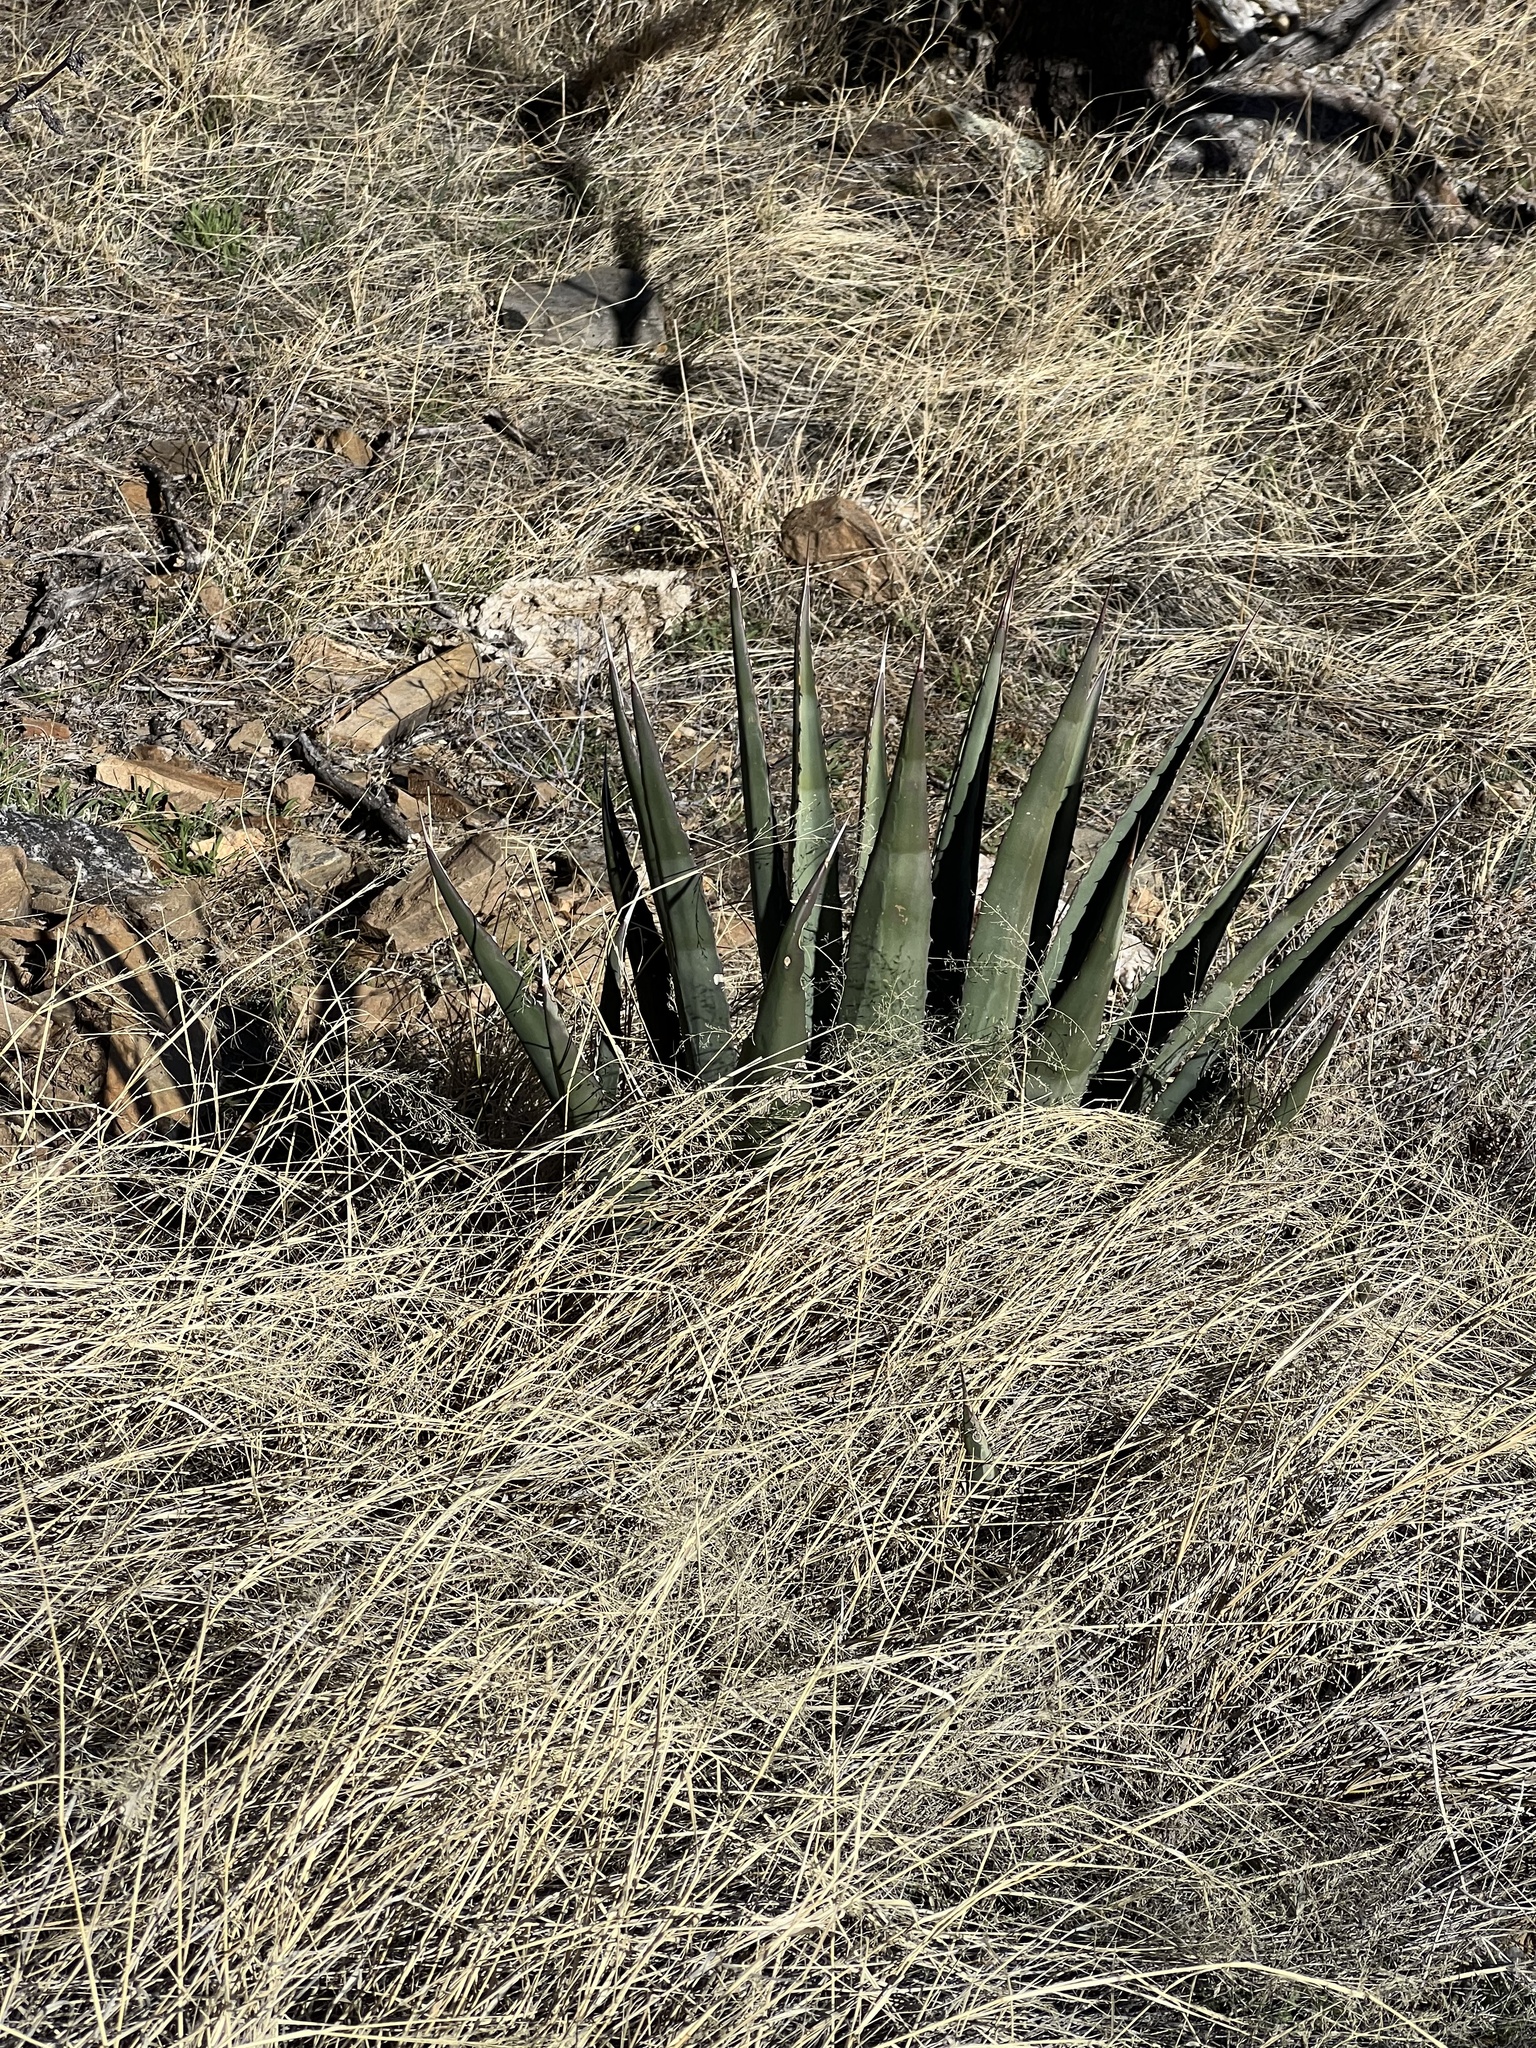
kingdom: Plantae
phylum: Tracheophyta
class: Liliopsida
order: Asparagales
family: Asparagaceae
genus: Agave
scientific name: Agave palmeri
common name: Palmer agave
